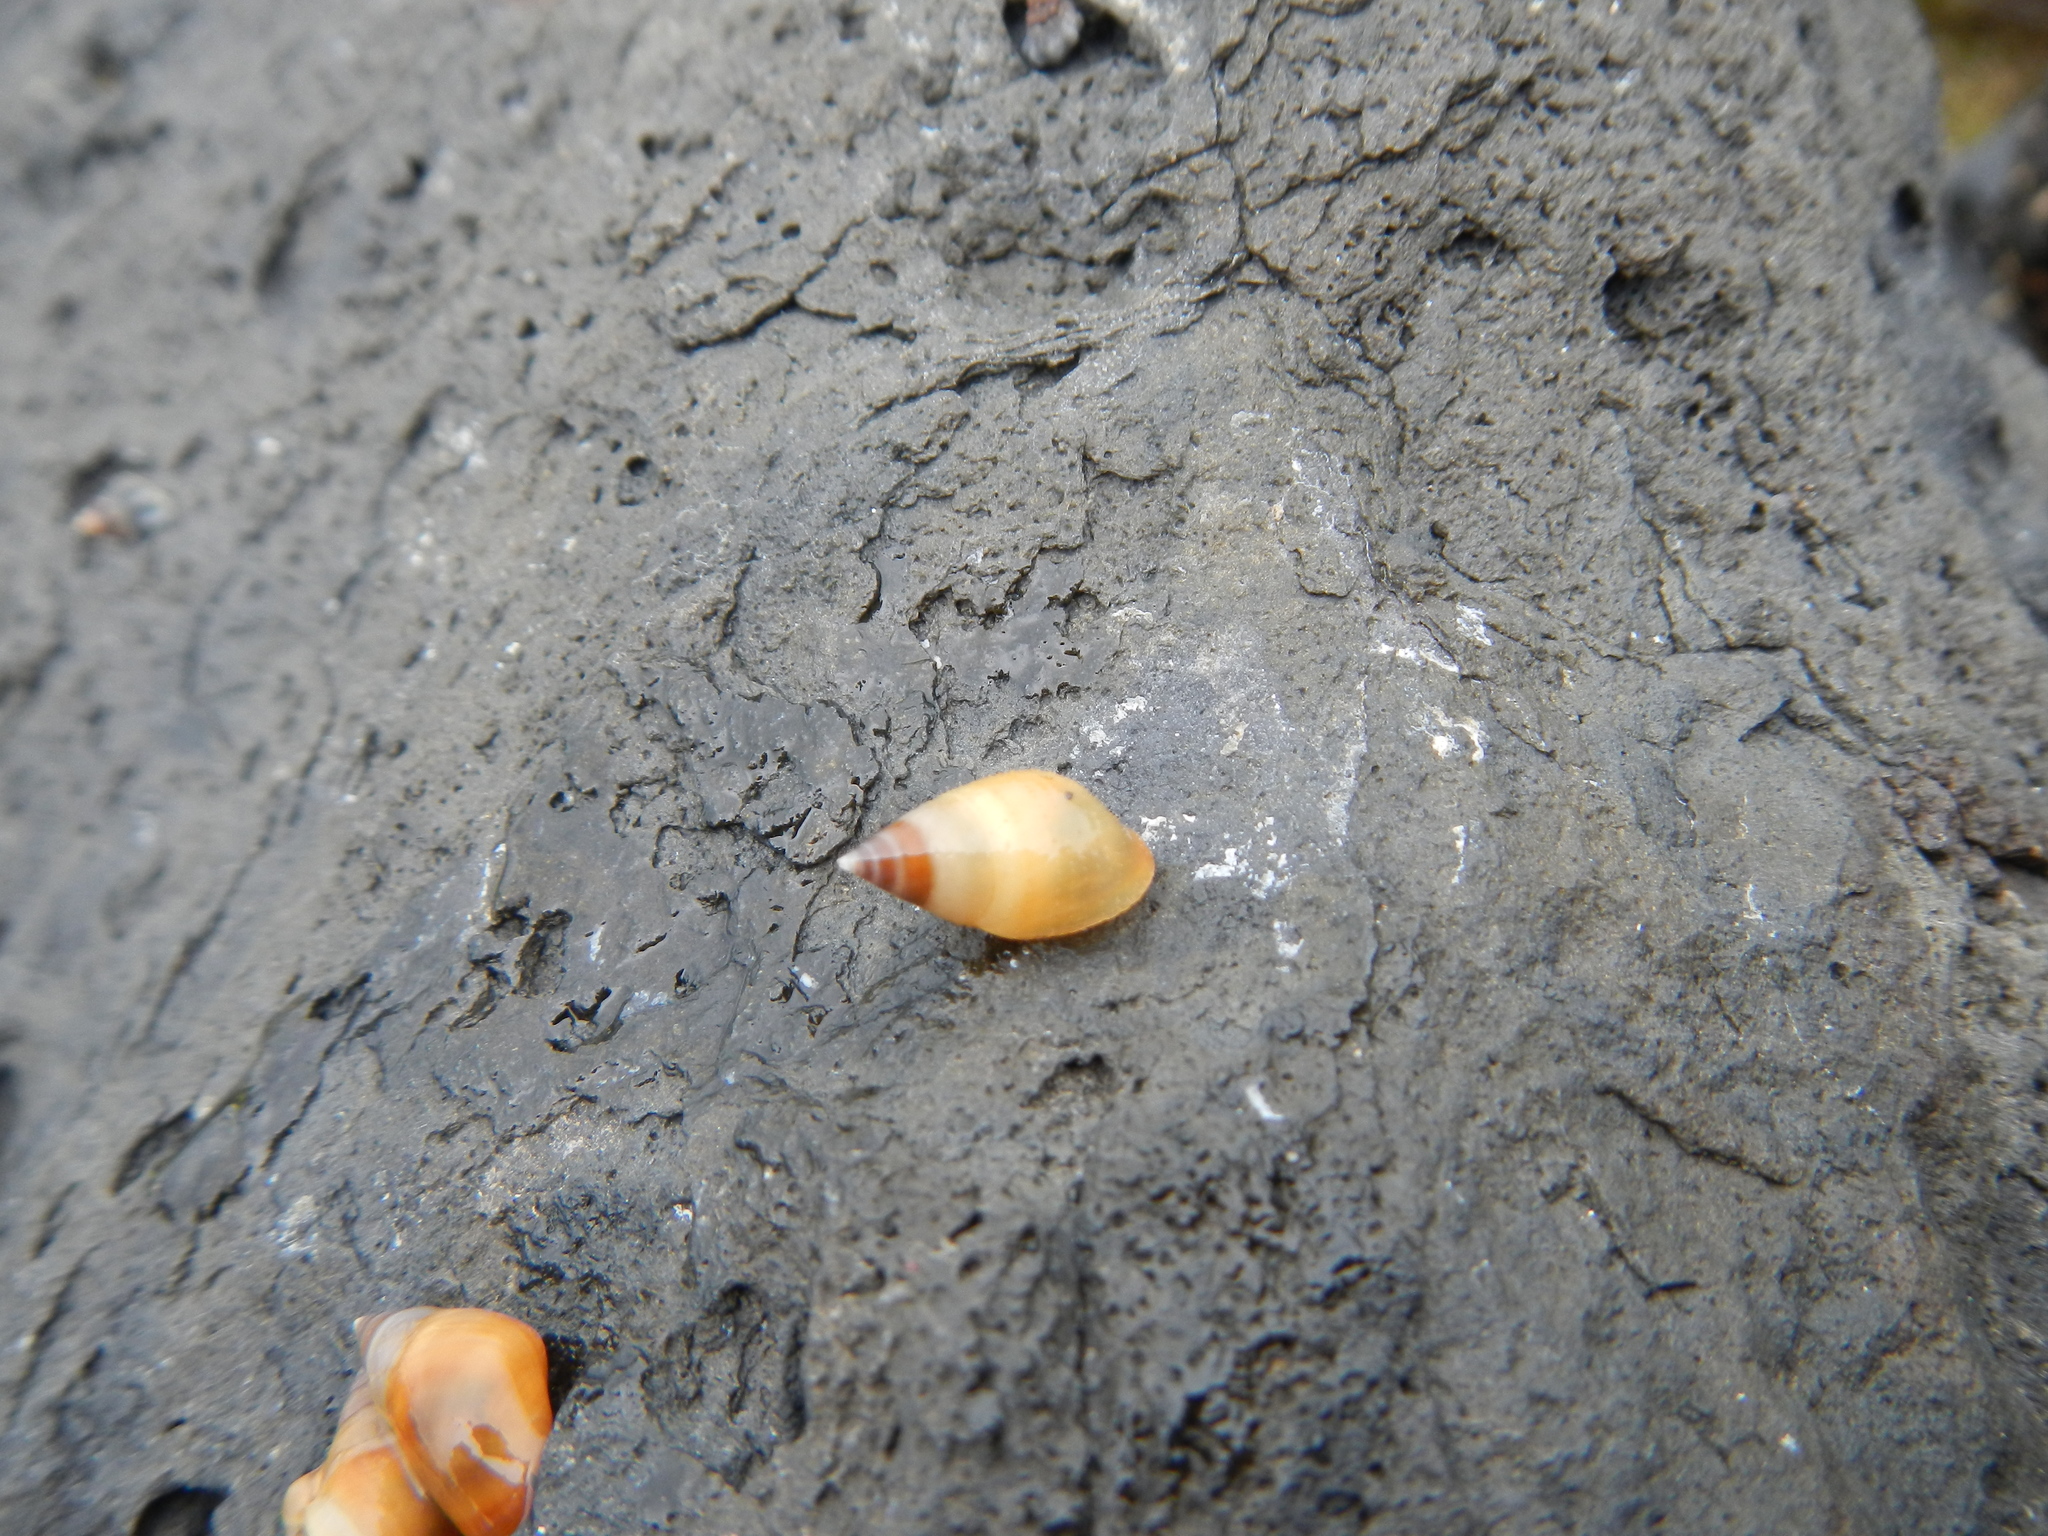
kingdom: Animalia
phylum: Mollusca
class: Gastropoda
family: Planaxidae
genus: Hinea
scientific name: Hinea akuana
